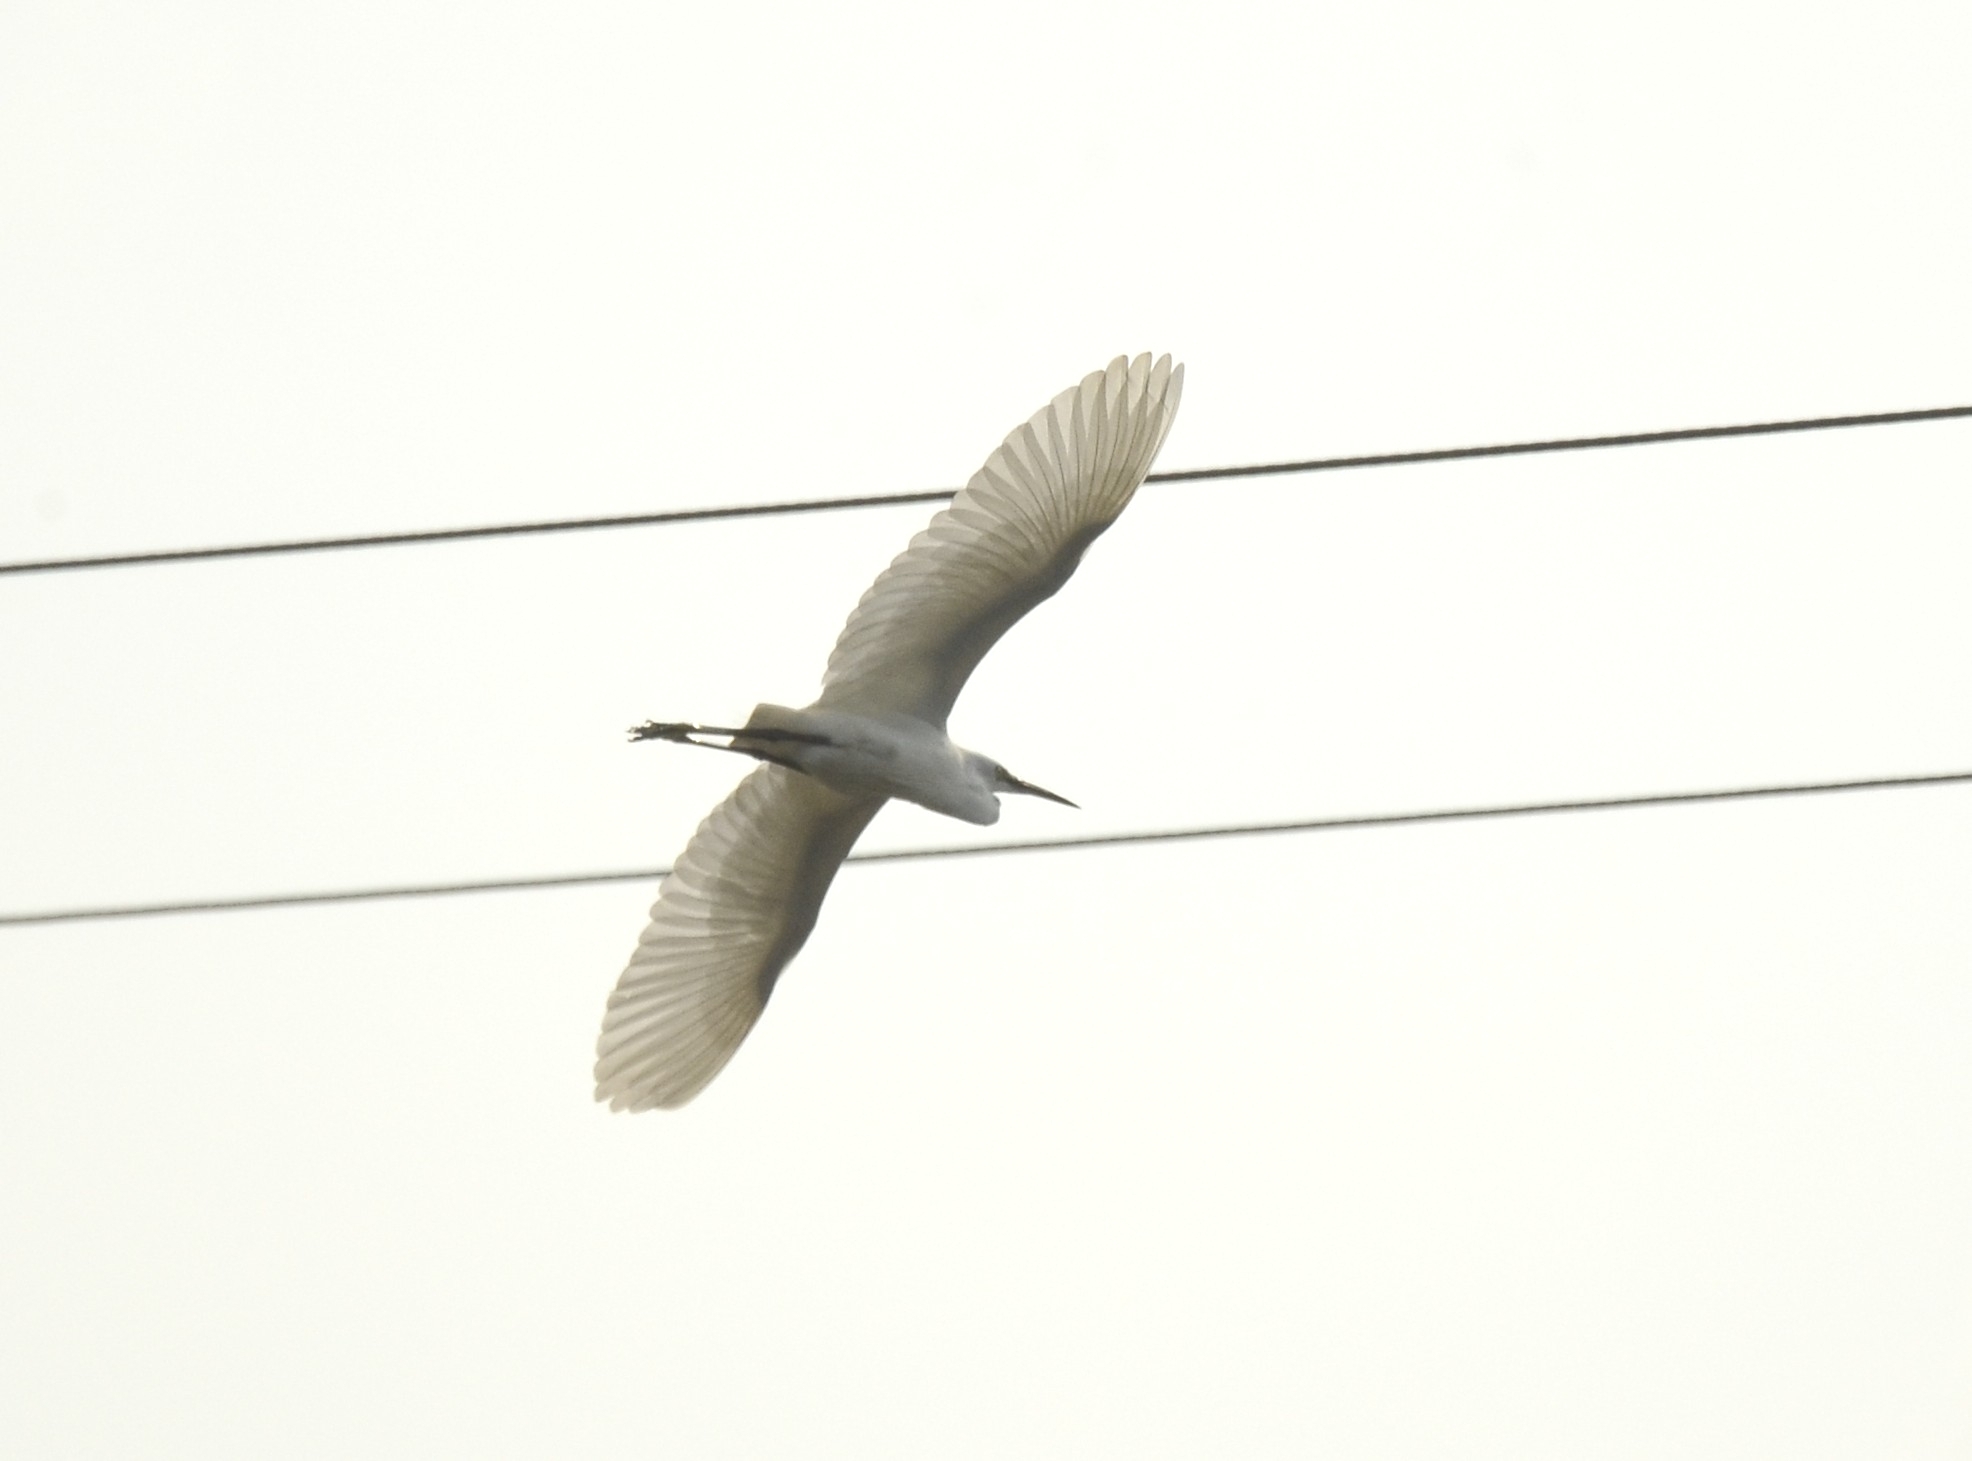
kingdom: Animalia
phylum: Chordata
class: Aves
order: Pelecaniformes
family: Ardeidae
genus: Egretta
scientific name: Egretta garzetta
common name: Little egret
